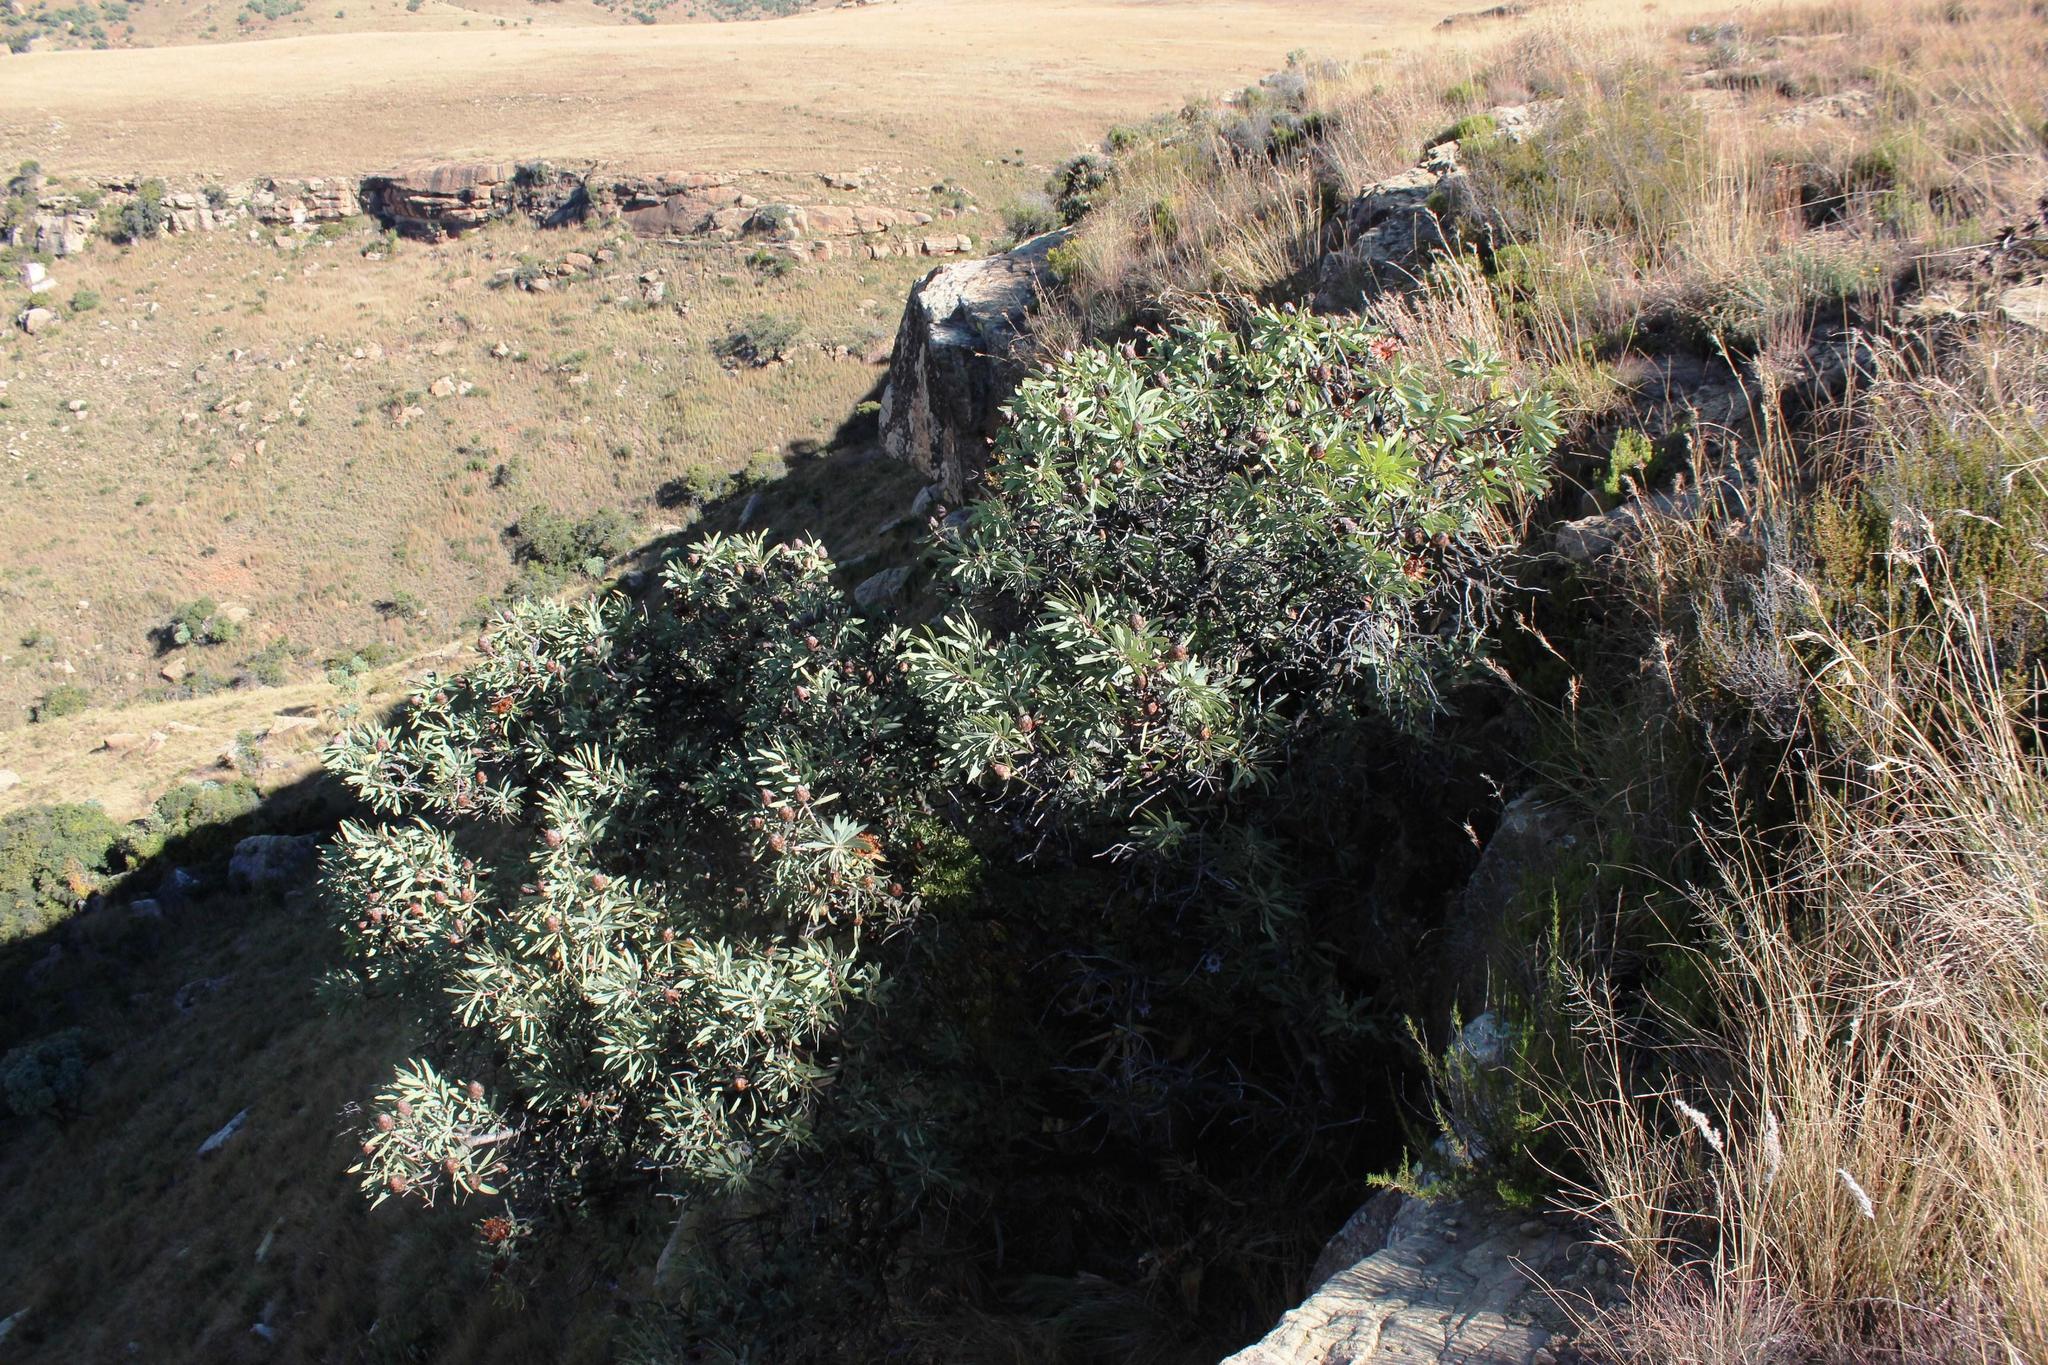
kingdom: Plantae
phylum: Tracheophyta
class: Magnoliopsida
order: Proteales
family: Proteaceae
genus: Protea
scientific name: Protea caffra
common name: Common sugarbush
